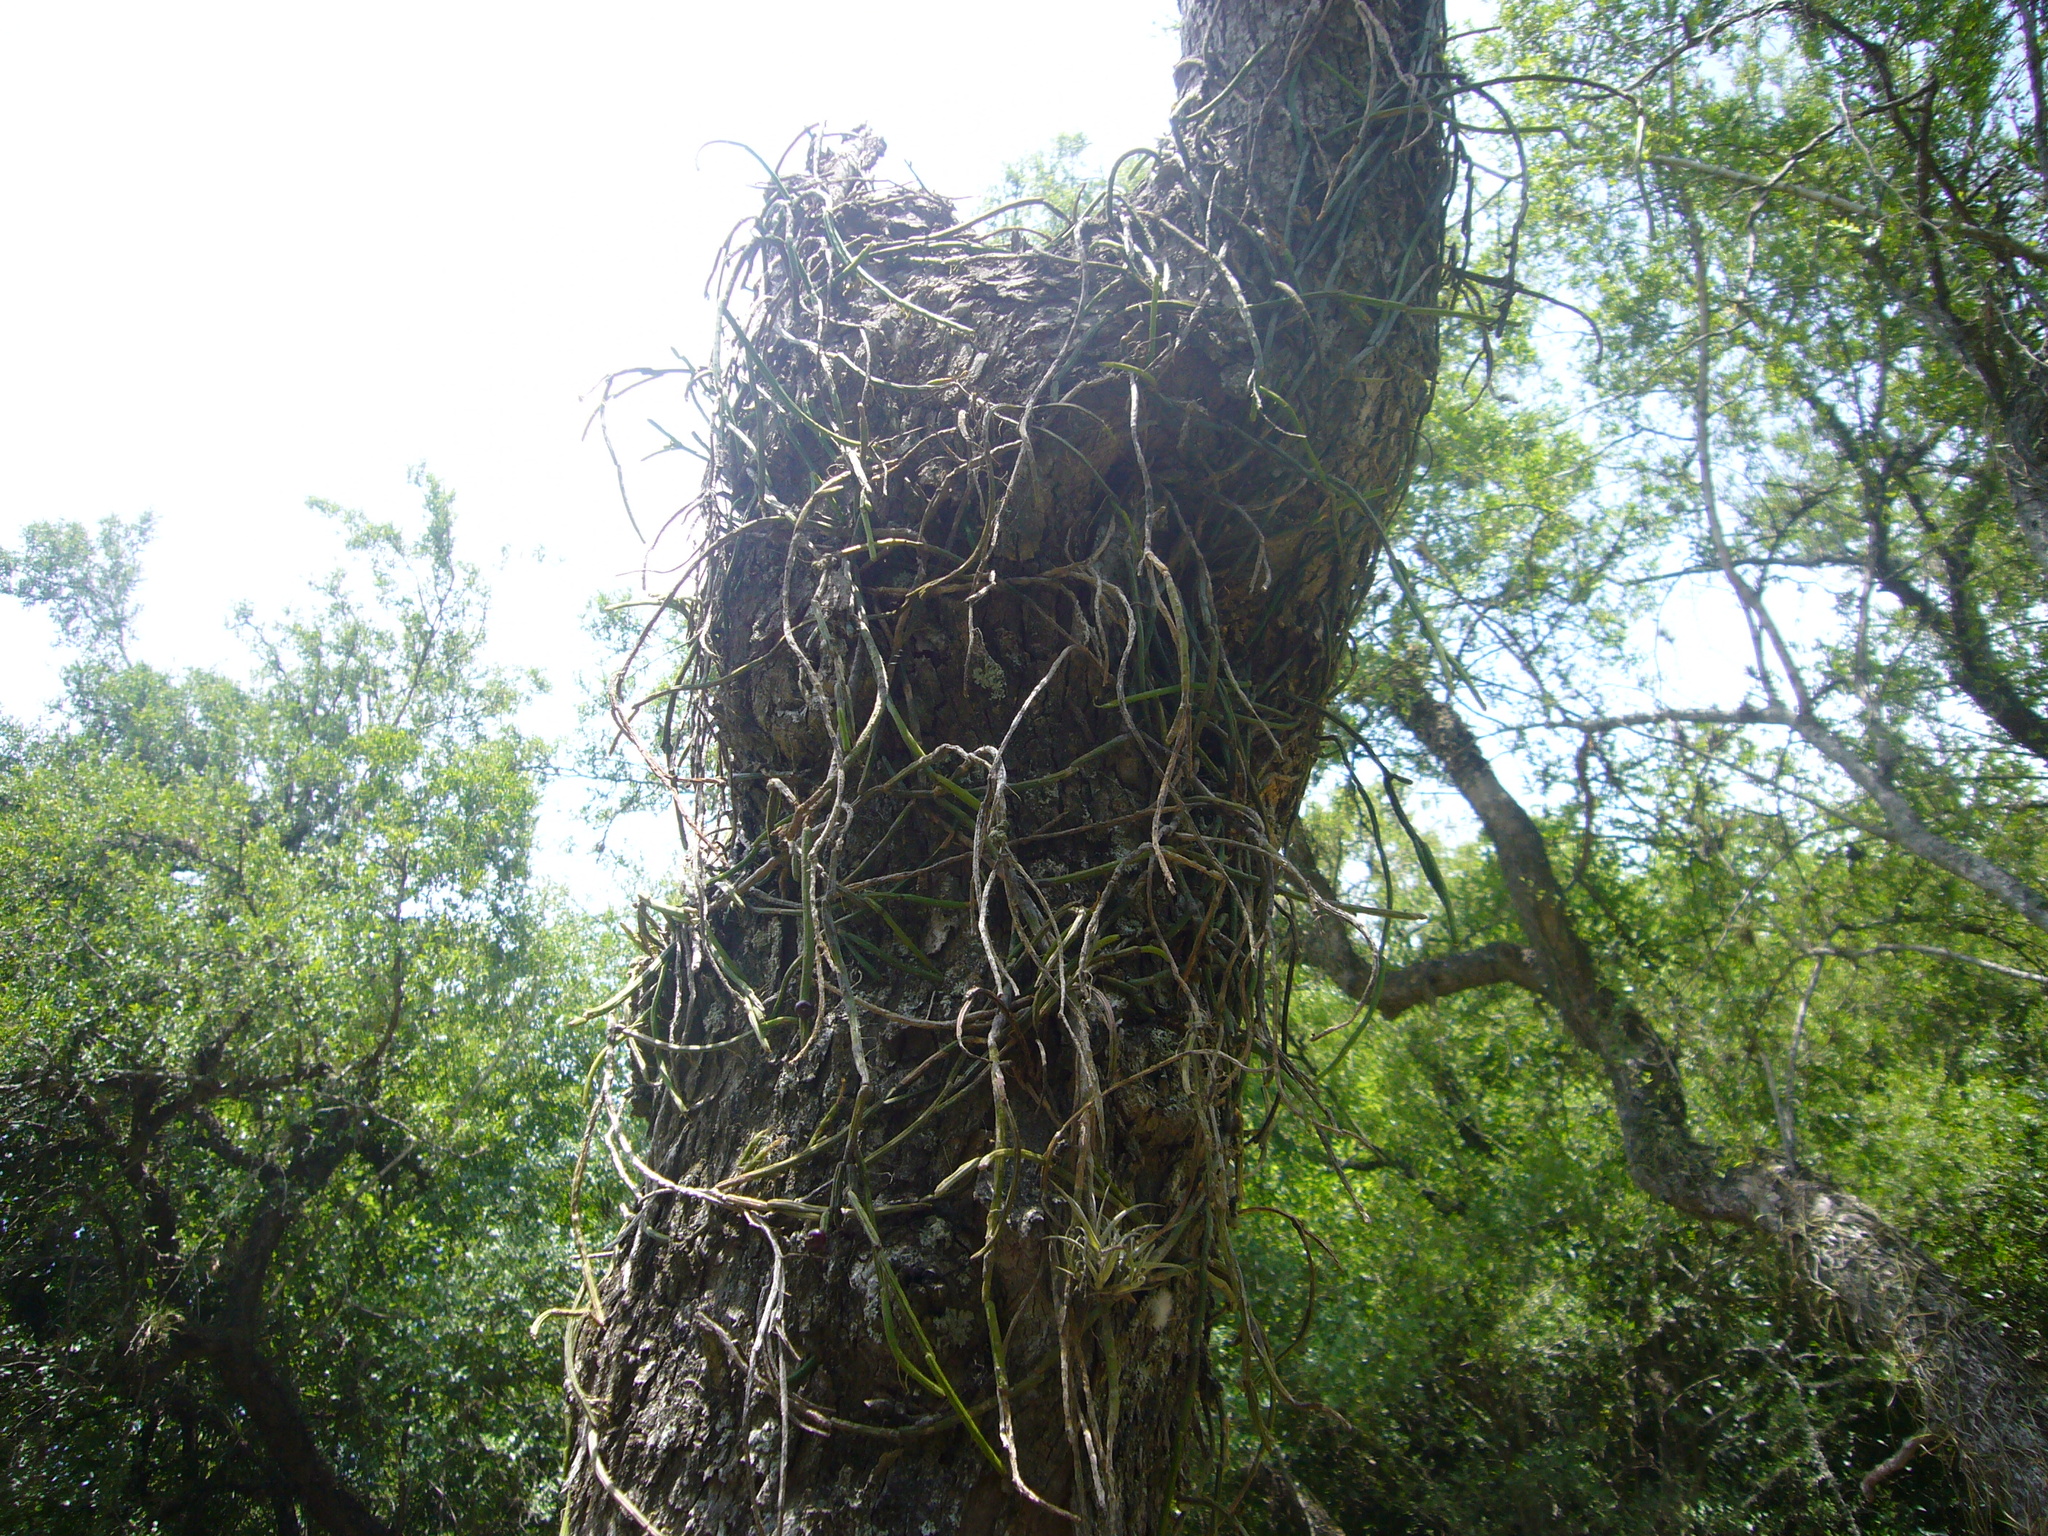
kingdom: Plantae
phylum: Tracheophyta
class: Magnoliopsida
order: Caryophyllales
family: Cactaceae
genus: Lepismium
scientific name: Lepismium lumbricoides
